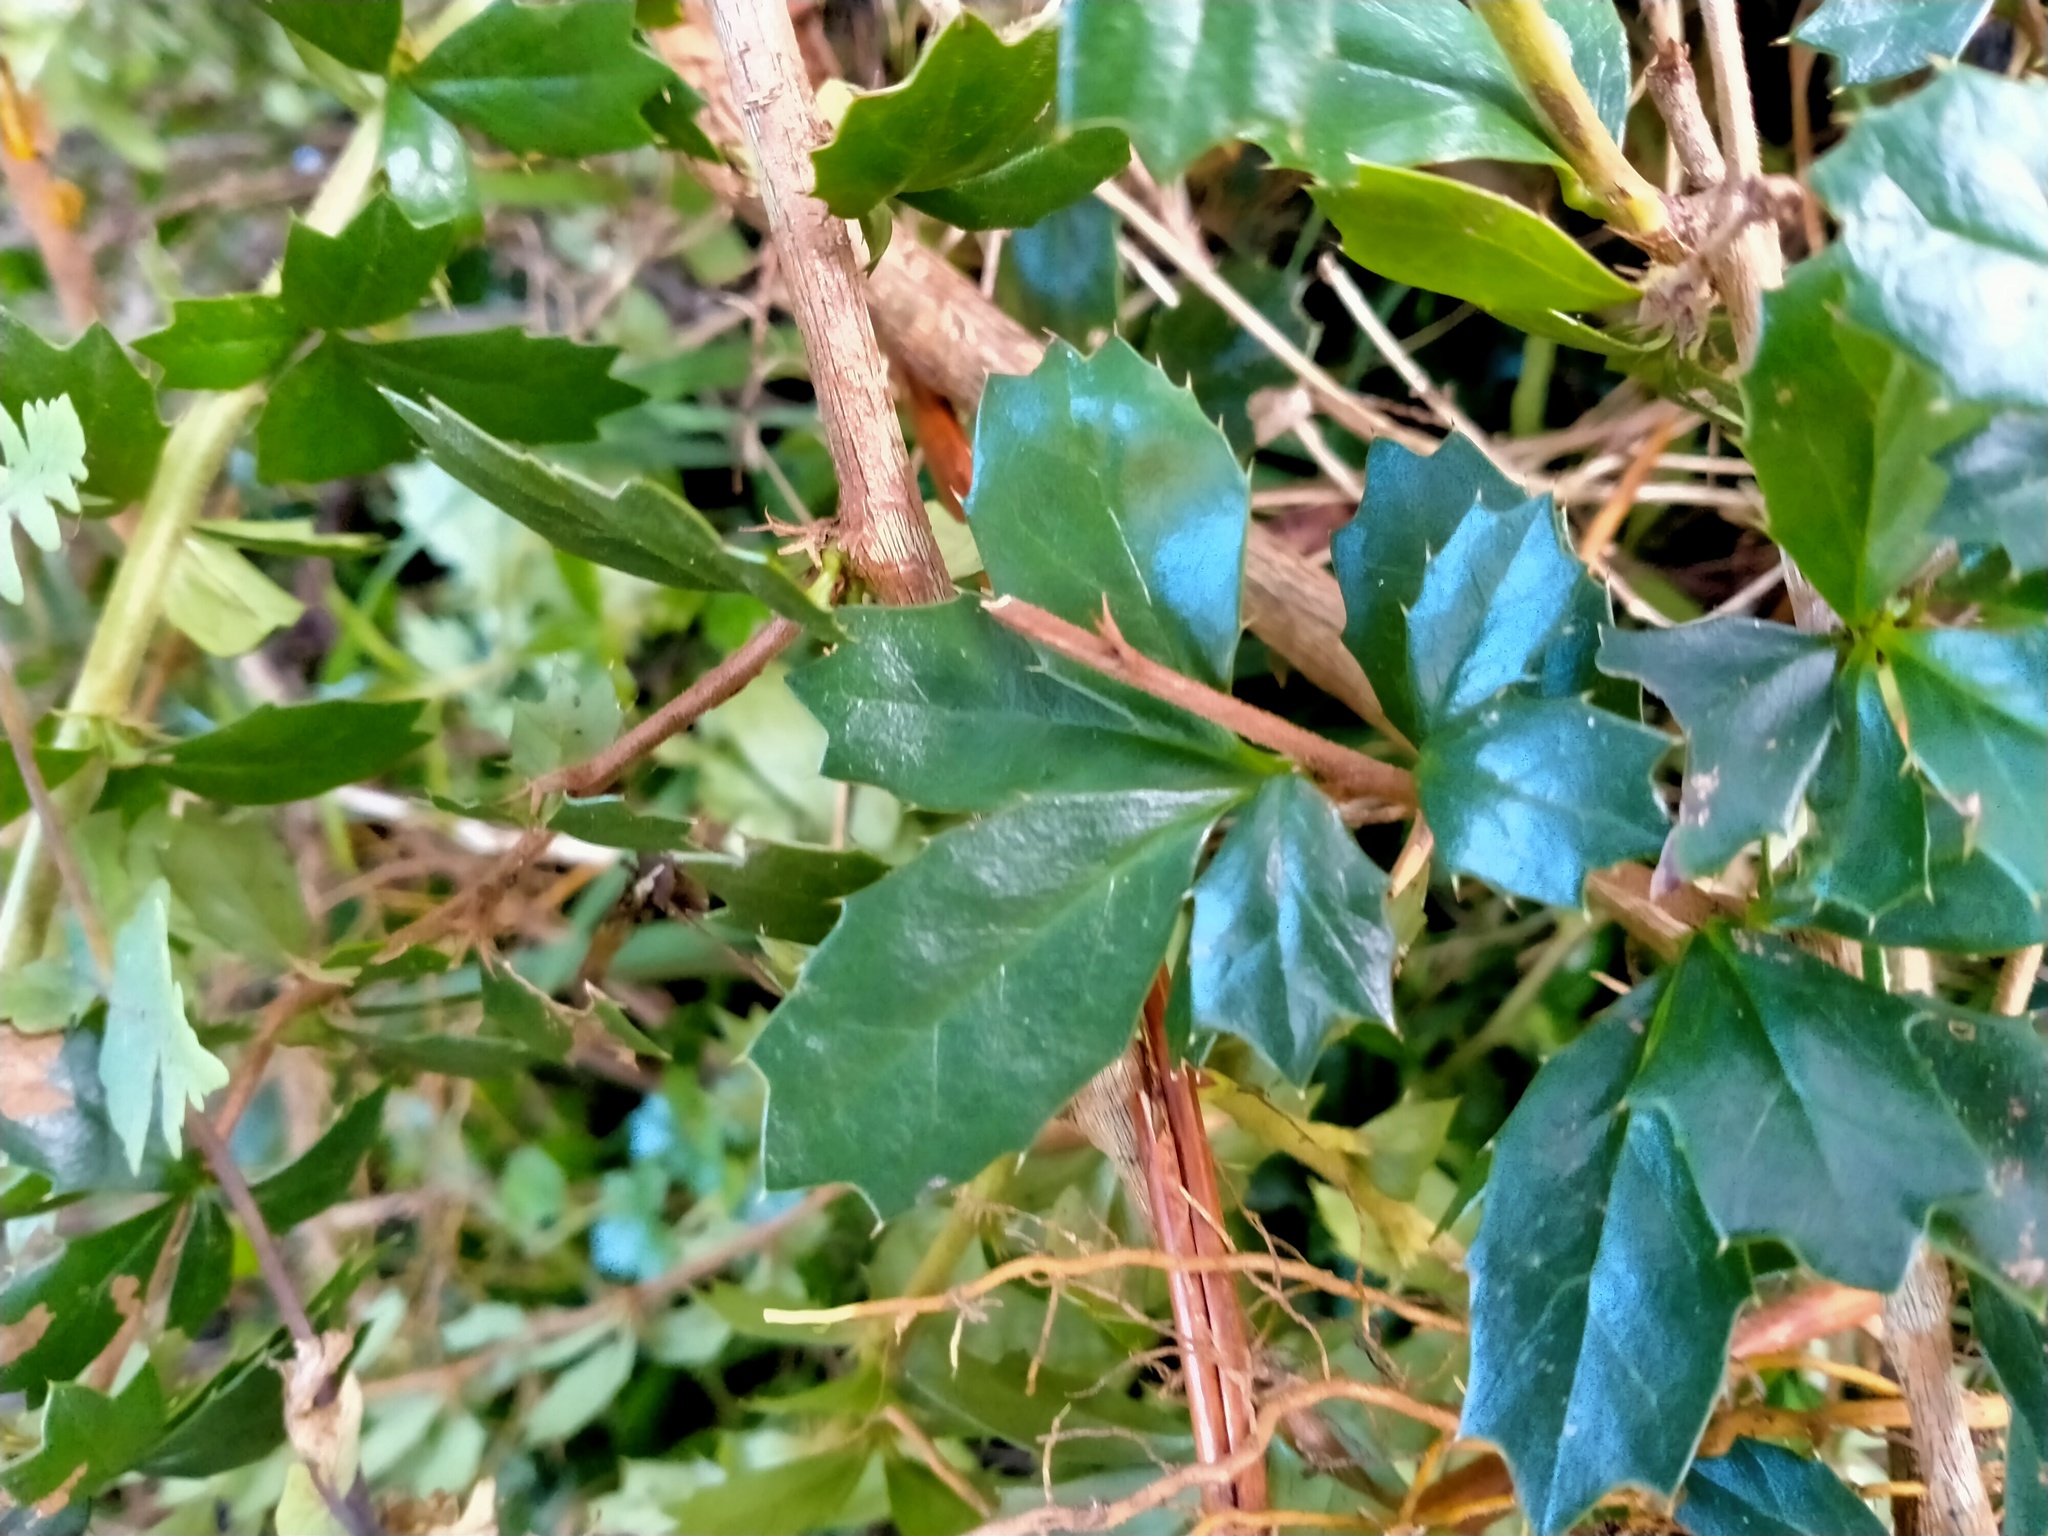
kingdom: Plantae
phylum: Tracheophyta
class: Magnoliopsida
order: Ranunculales
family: Berberidaceae
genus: Berberis
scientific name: Berberis darwinii
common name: Darwin's barberry
